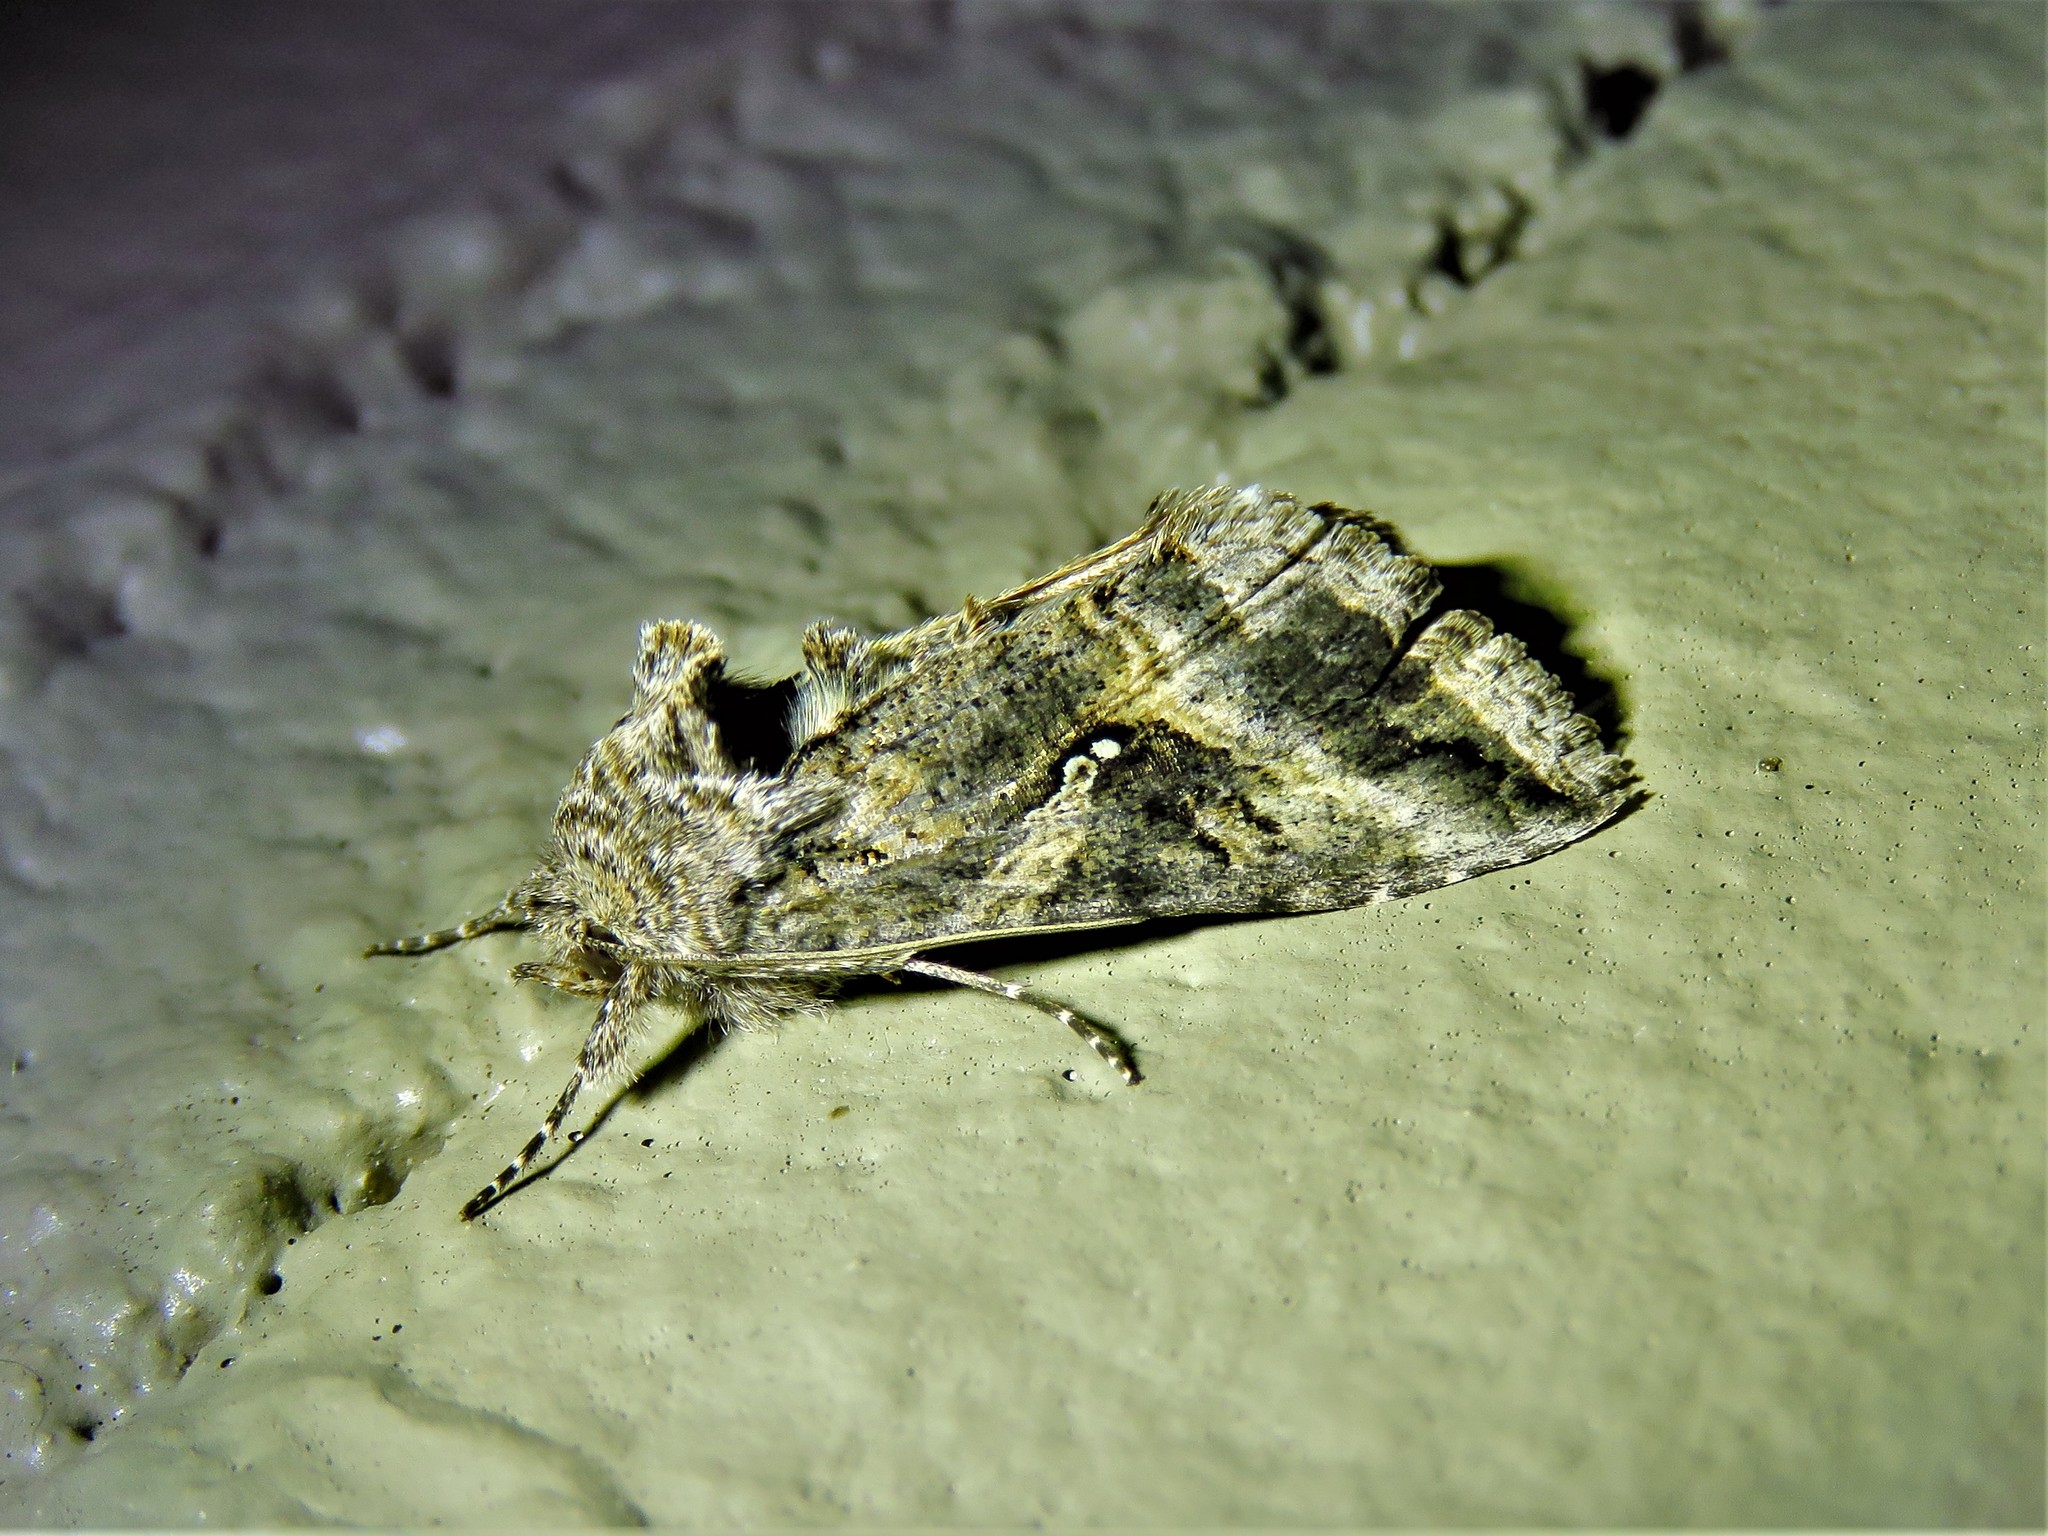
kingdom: Animalia
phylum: Arthropoda
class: Insecta
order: Lepidoptera
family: Noctuidae
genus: Rachiplusia
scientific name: Rachiplusia ou
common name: Gray looper moth
